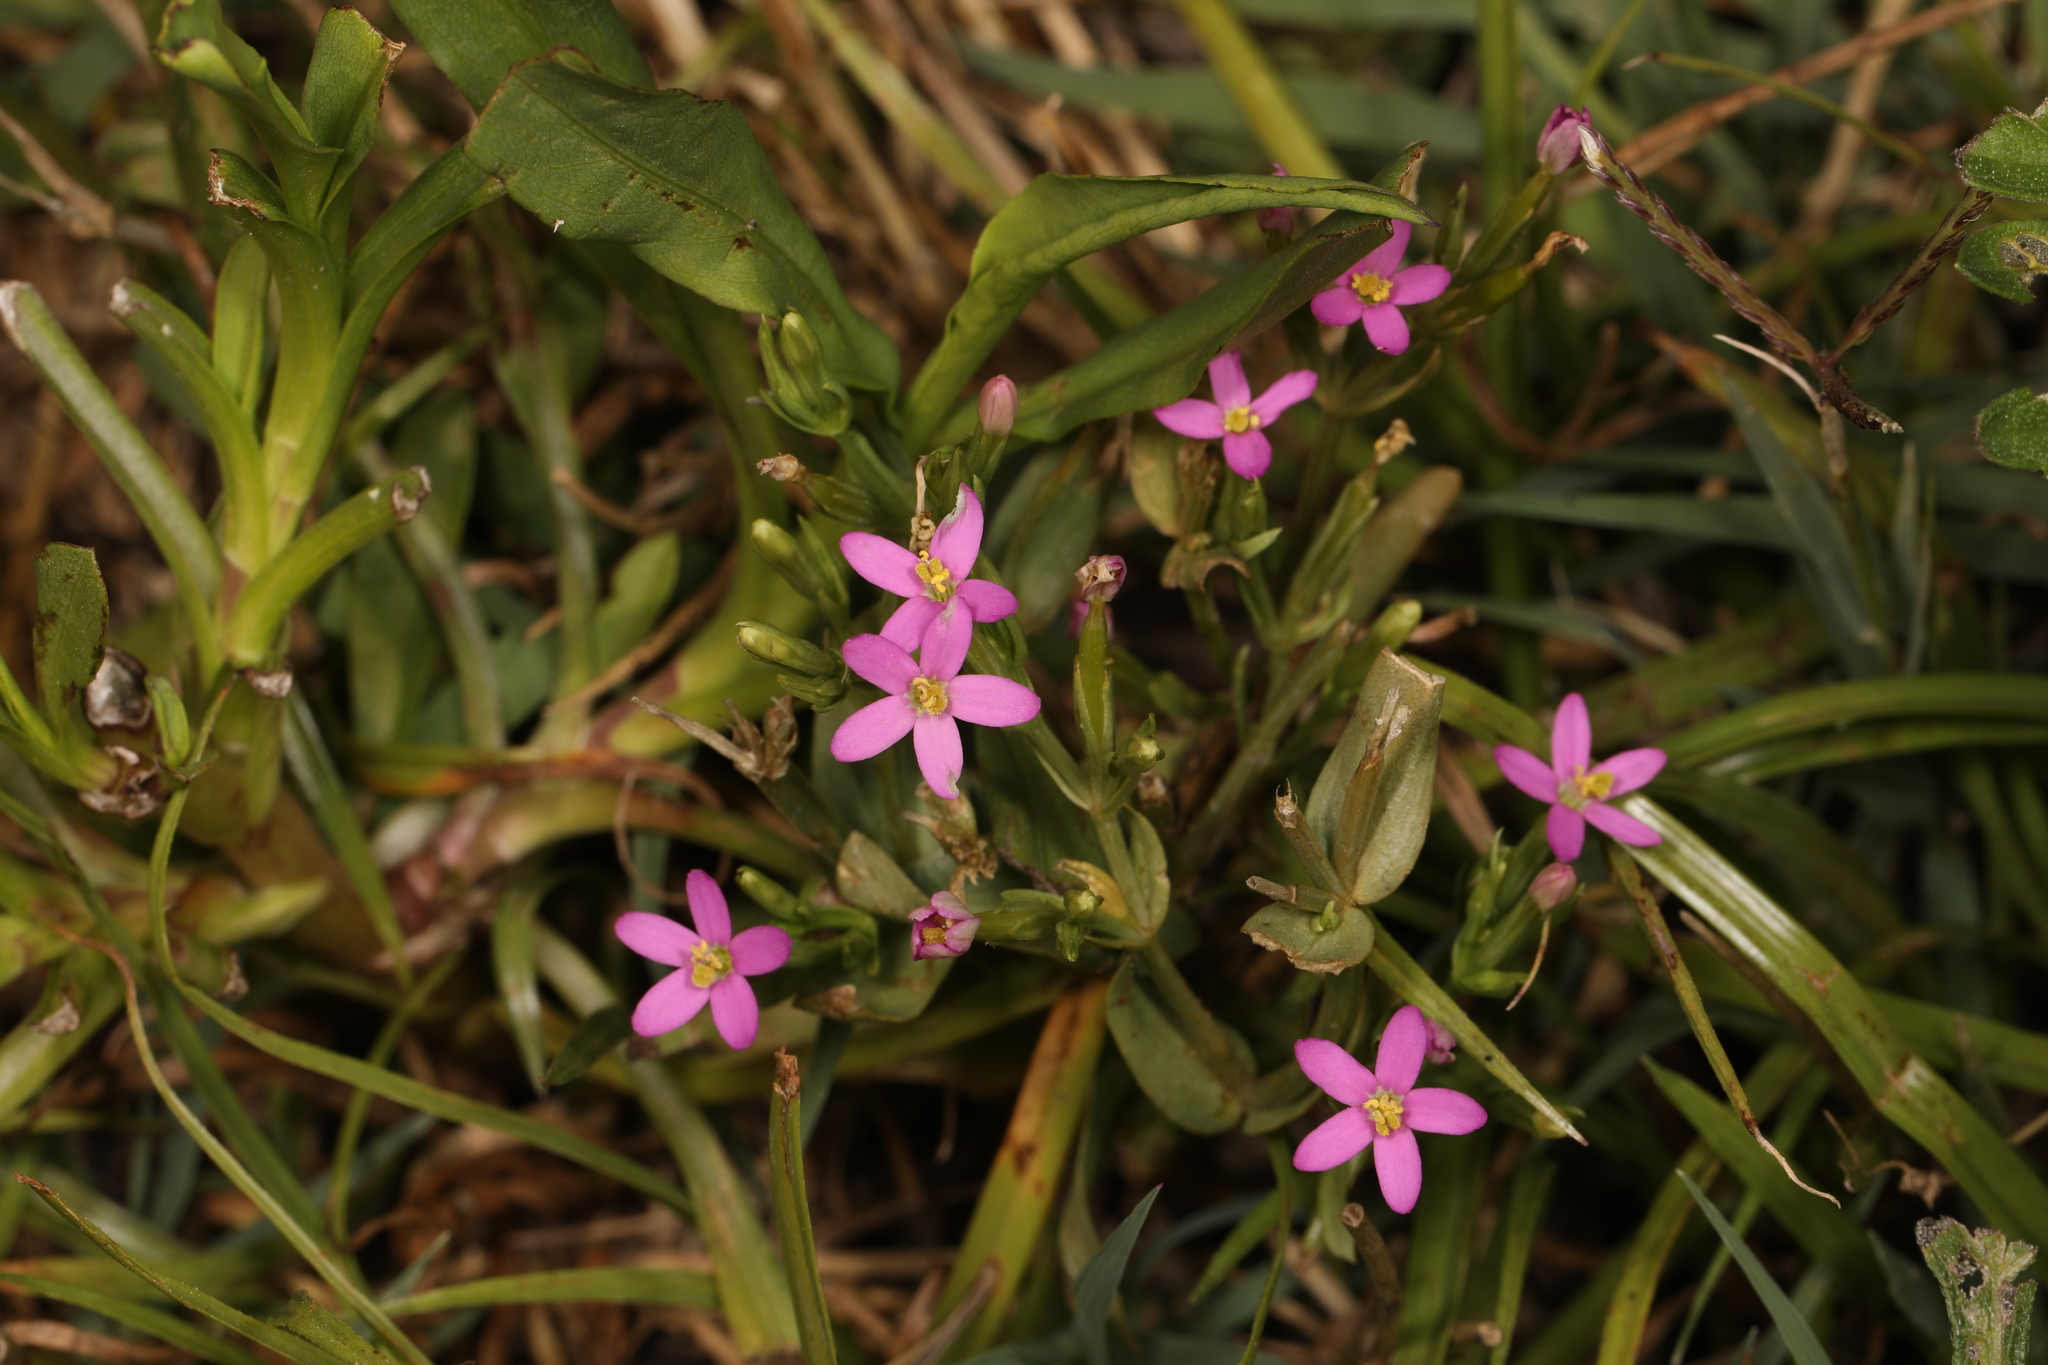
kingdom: Plantae
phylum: Tracheophyta
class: Magnoliopsida
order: Gentianales
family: Gentianaceae
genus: Centaurium
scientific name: Centaurium pulchellum
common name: Lesser centaury
